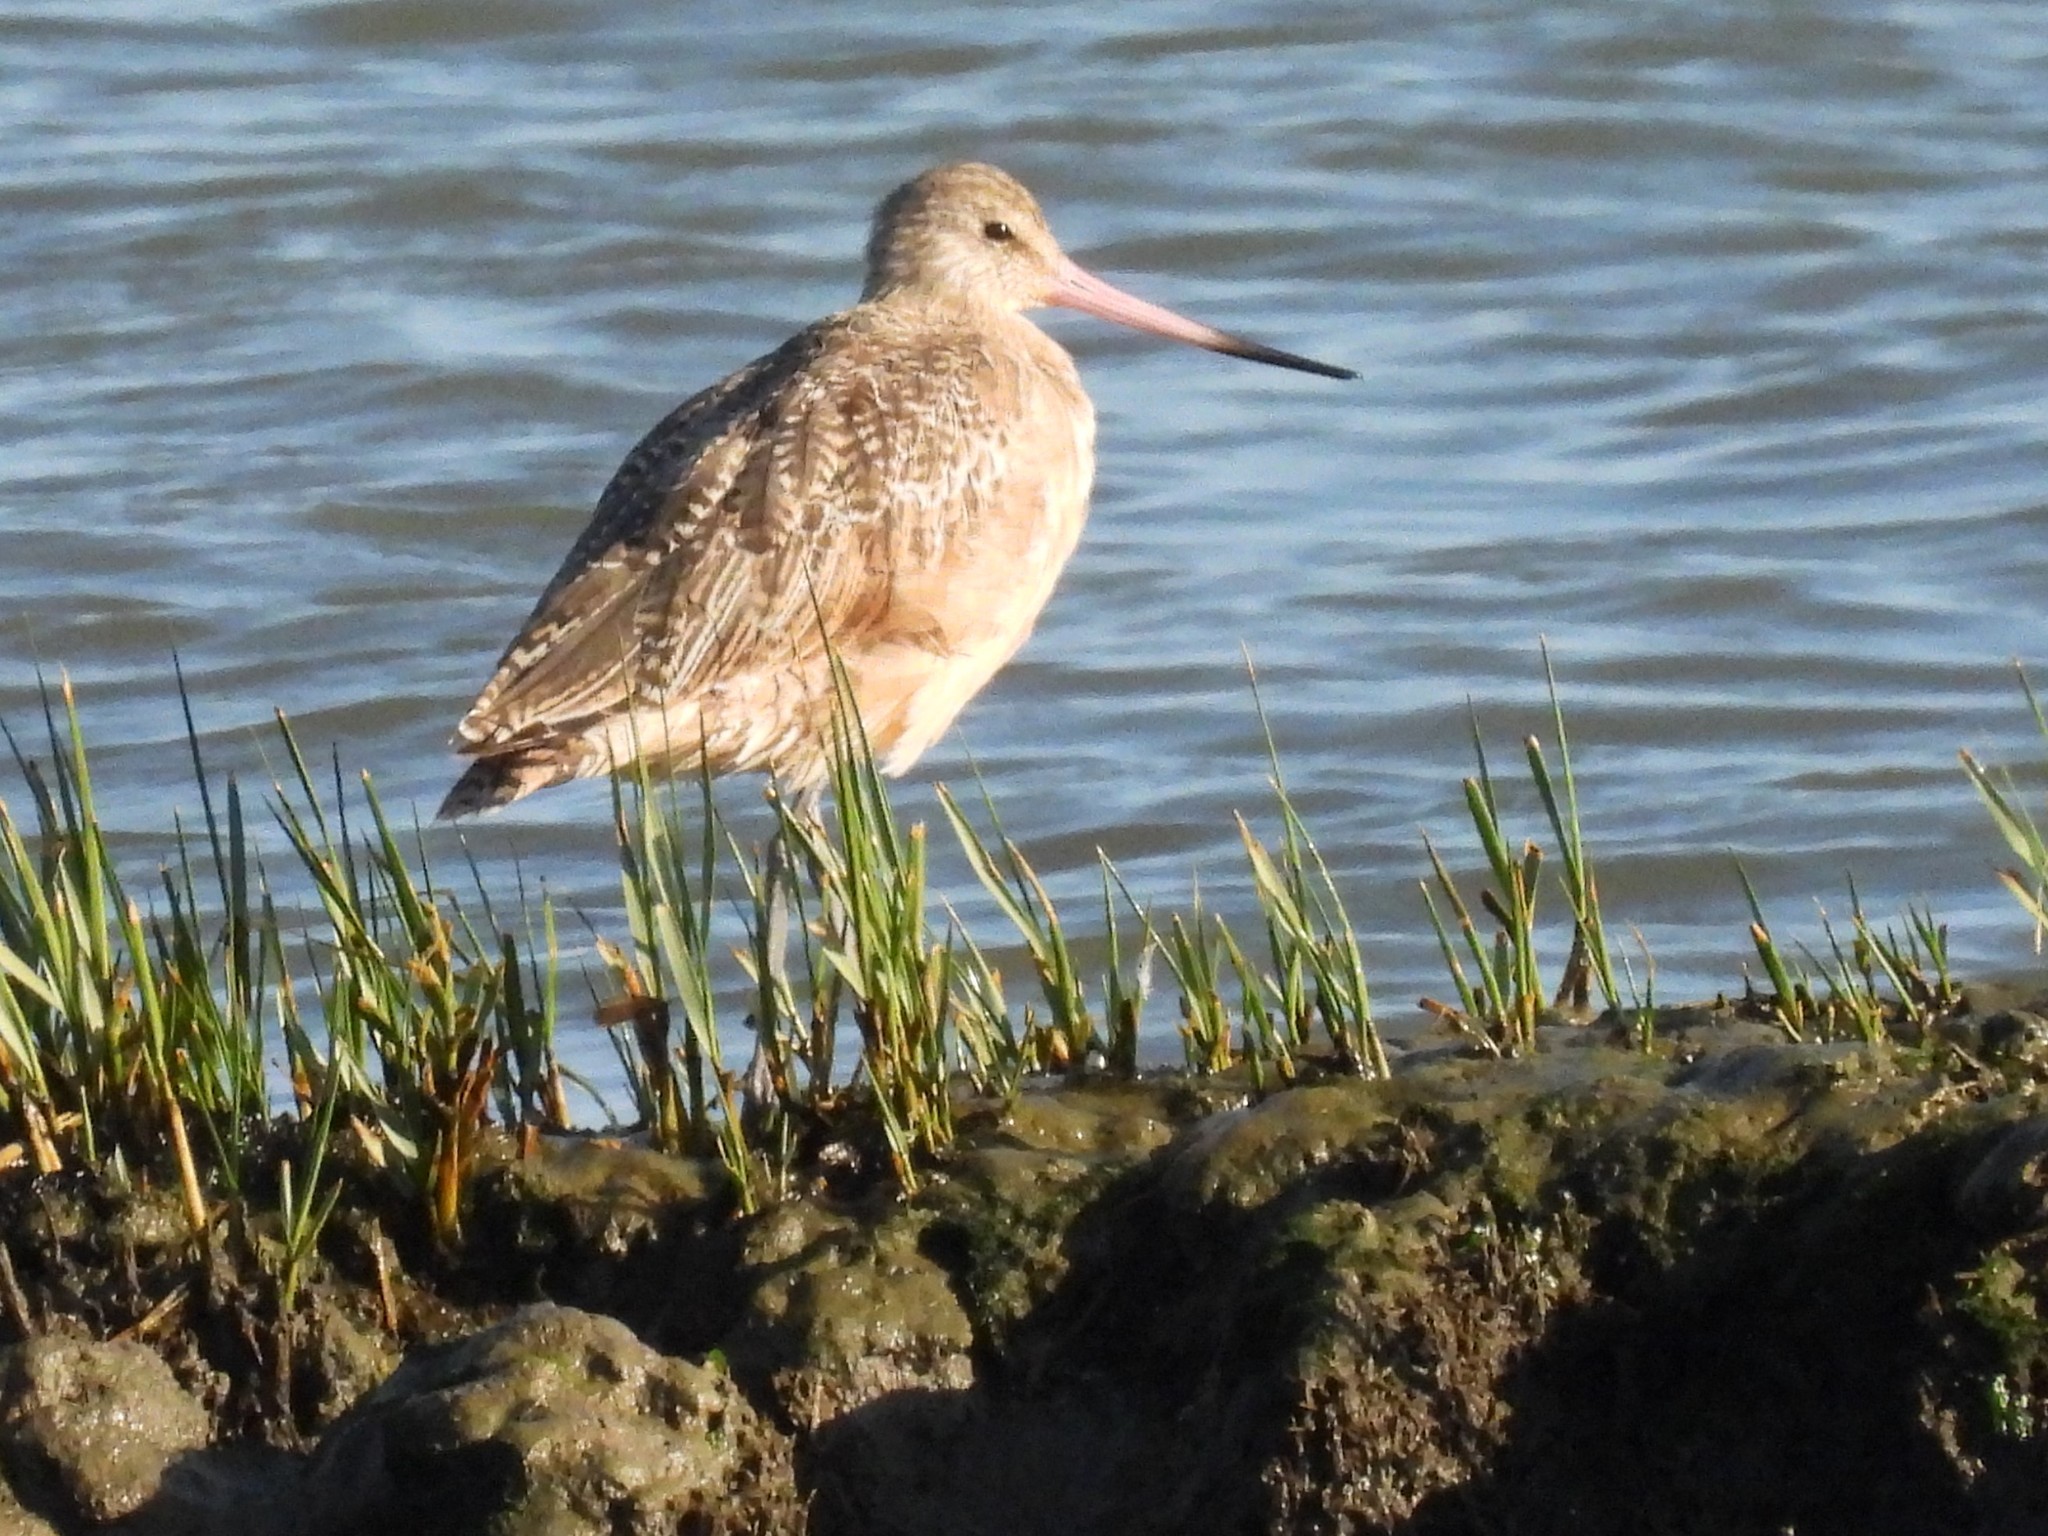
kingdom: Animalia
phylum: Chordata
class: Aves
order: Charadriiformes
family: Scolopacidae
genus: Limosa
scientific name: Limosa fedoa
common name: Marbled godwit
